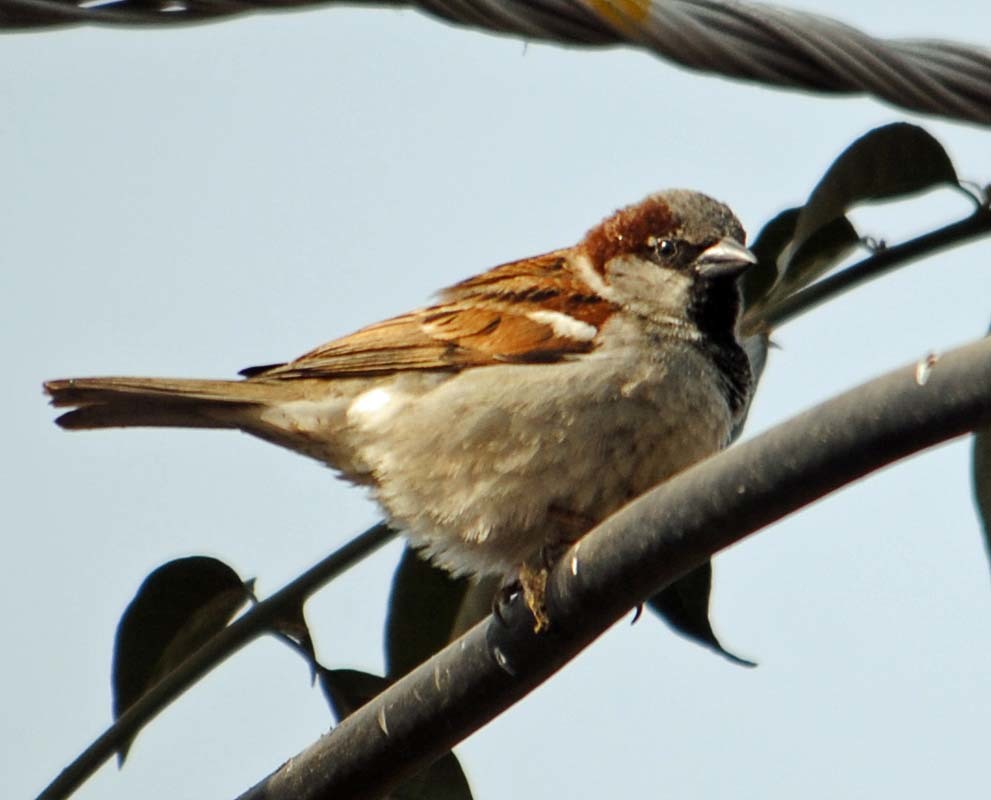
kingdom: Animalia
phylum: Chordata
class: Aves
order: Passeriformes
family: Passeridae
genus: Passer
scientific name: Passer domesticus
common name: House sparrow
